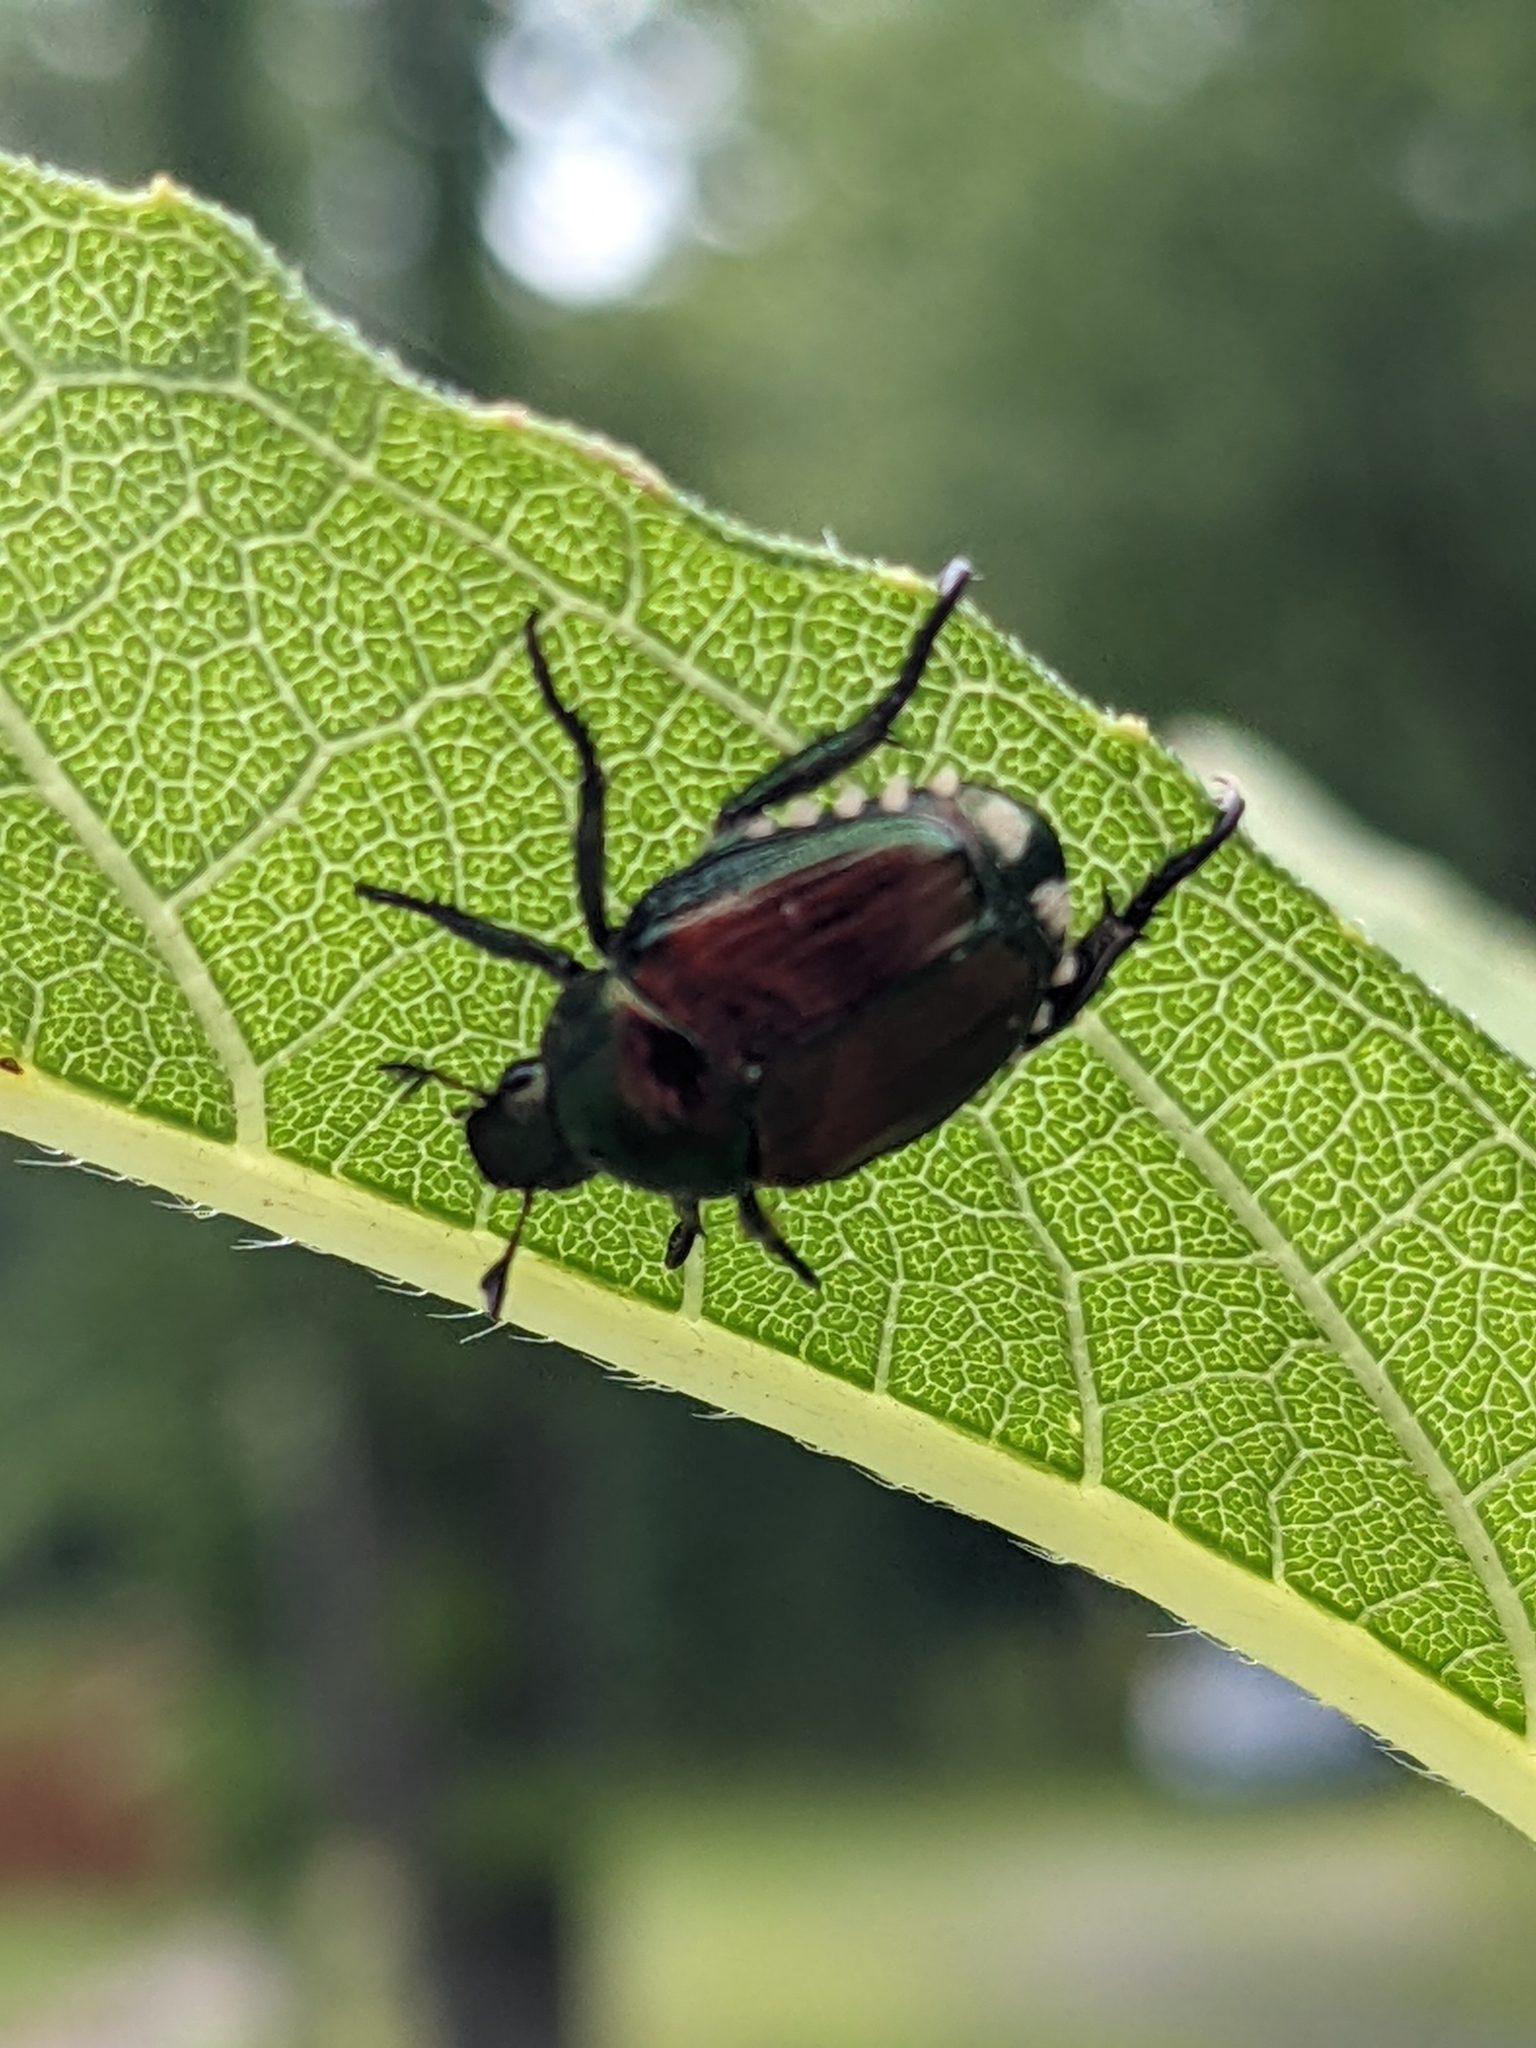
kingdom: Animalia
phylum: Arthropoda
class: Insecta
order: Coleoptera
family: Scarabaeidae
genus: Popillia
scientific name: Popillia japonica
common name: Japanese beetle
